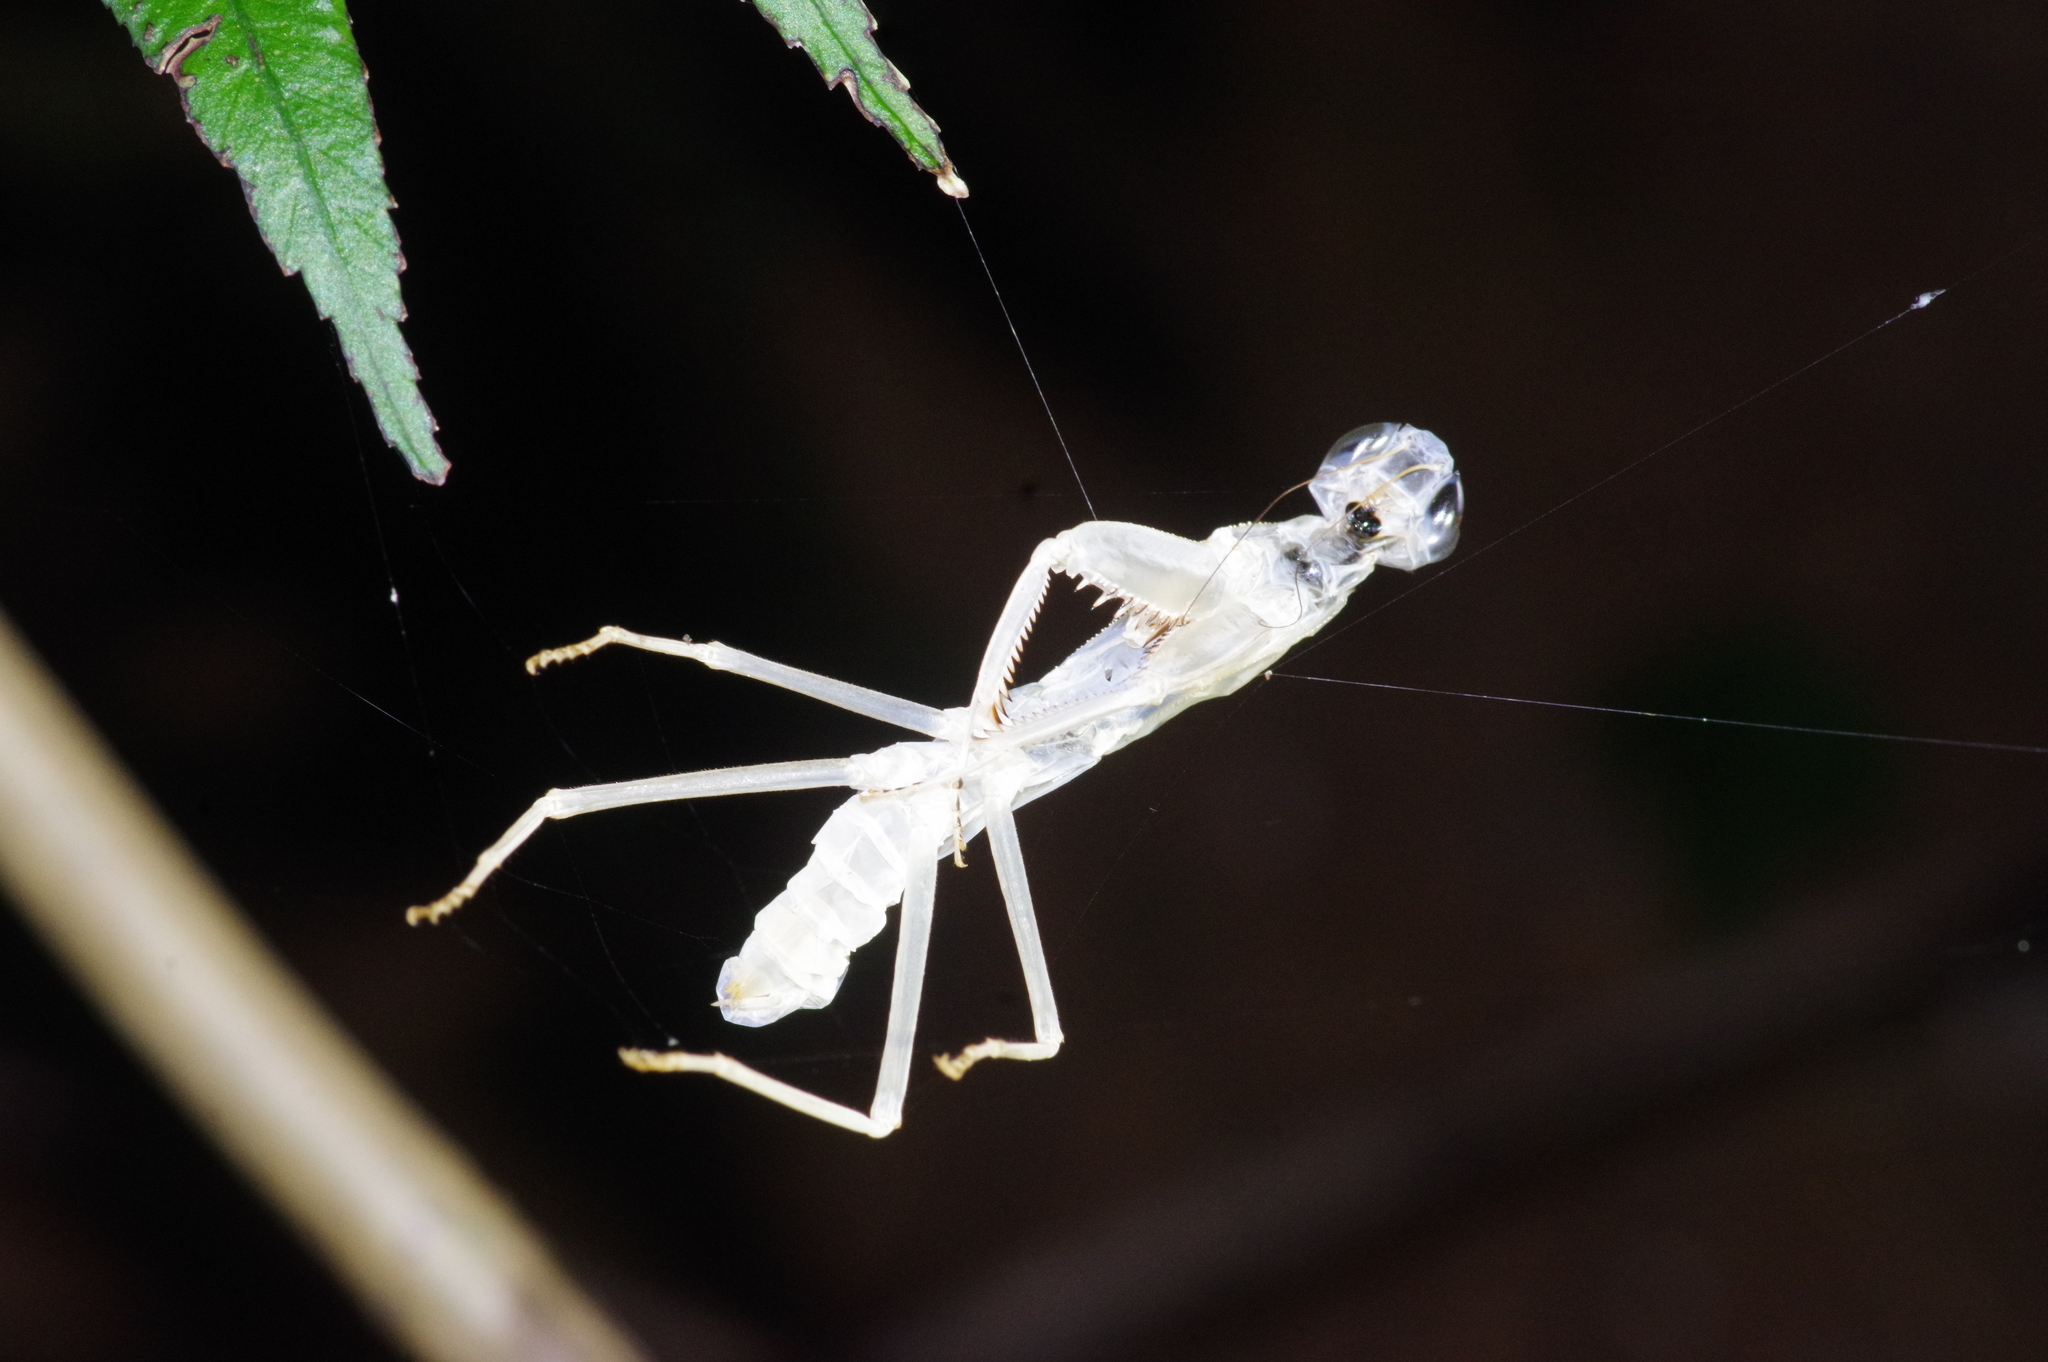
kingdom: Animalia
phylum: Arthropoda
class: Insecta
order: Mantodea
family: Mantidae
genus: Hierodula
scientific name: Hierodula patellifera
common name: Asian mantis
